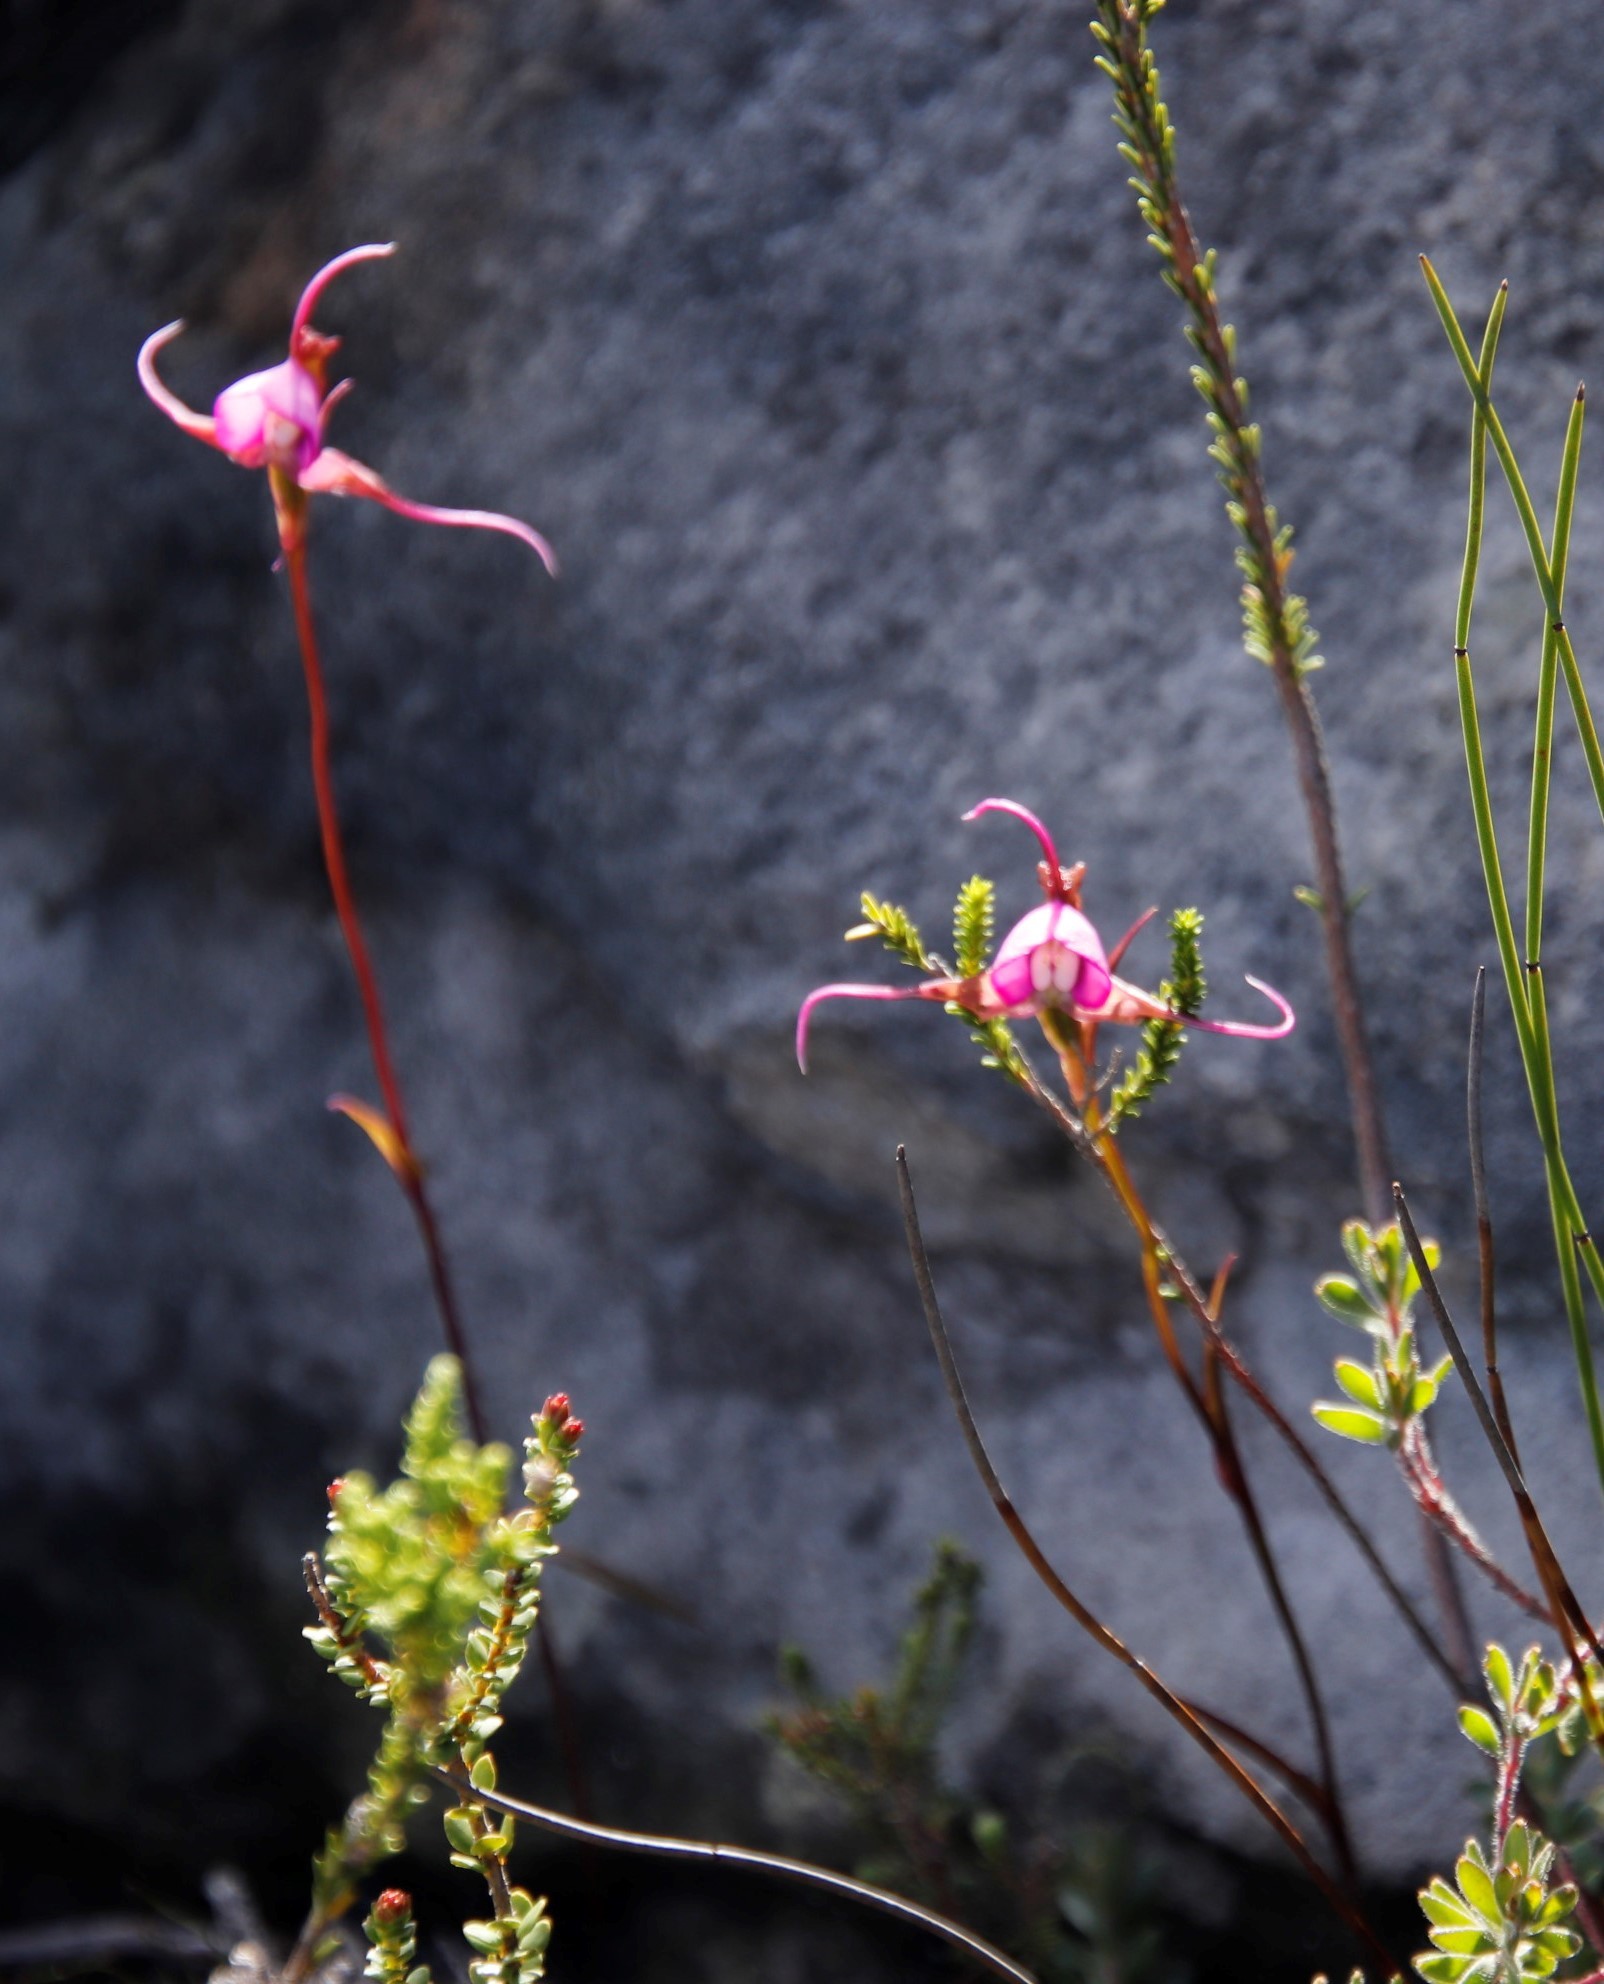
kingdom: Plantae
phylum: Tracheophyta
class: Liliopsida
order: Asparagales
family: Orchidaceae
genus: Disperis
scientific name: Disperis capensis
